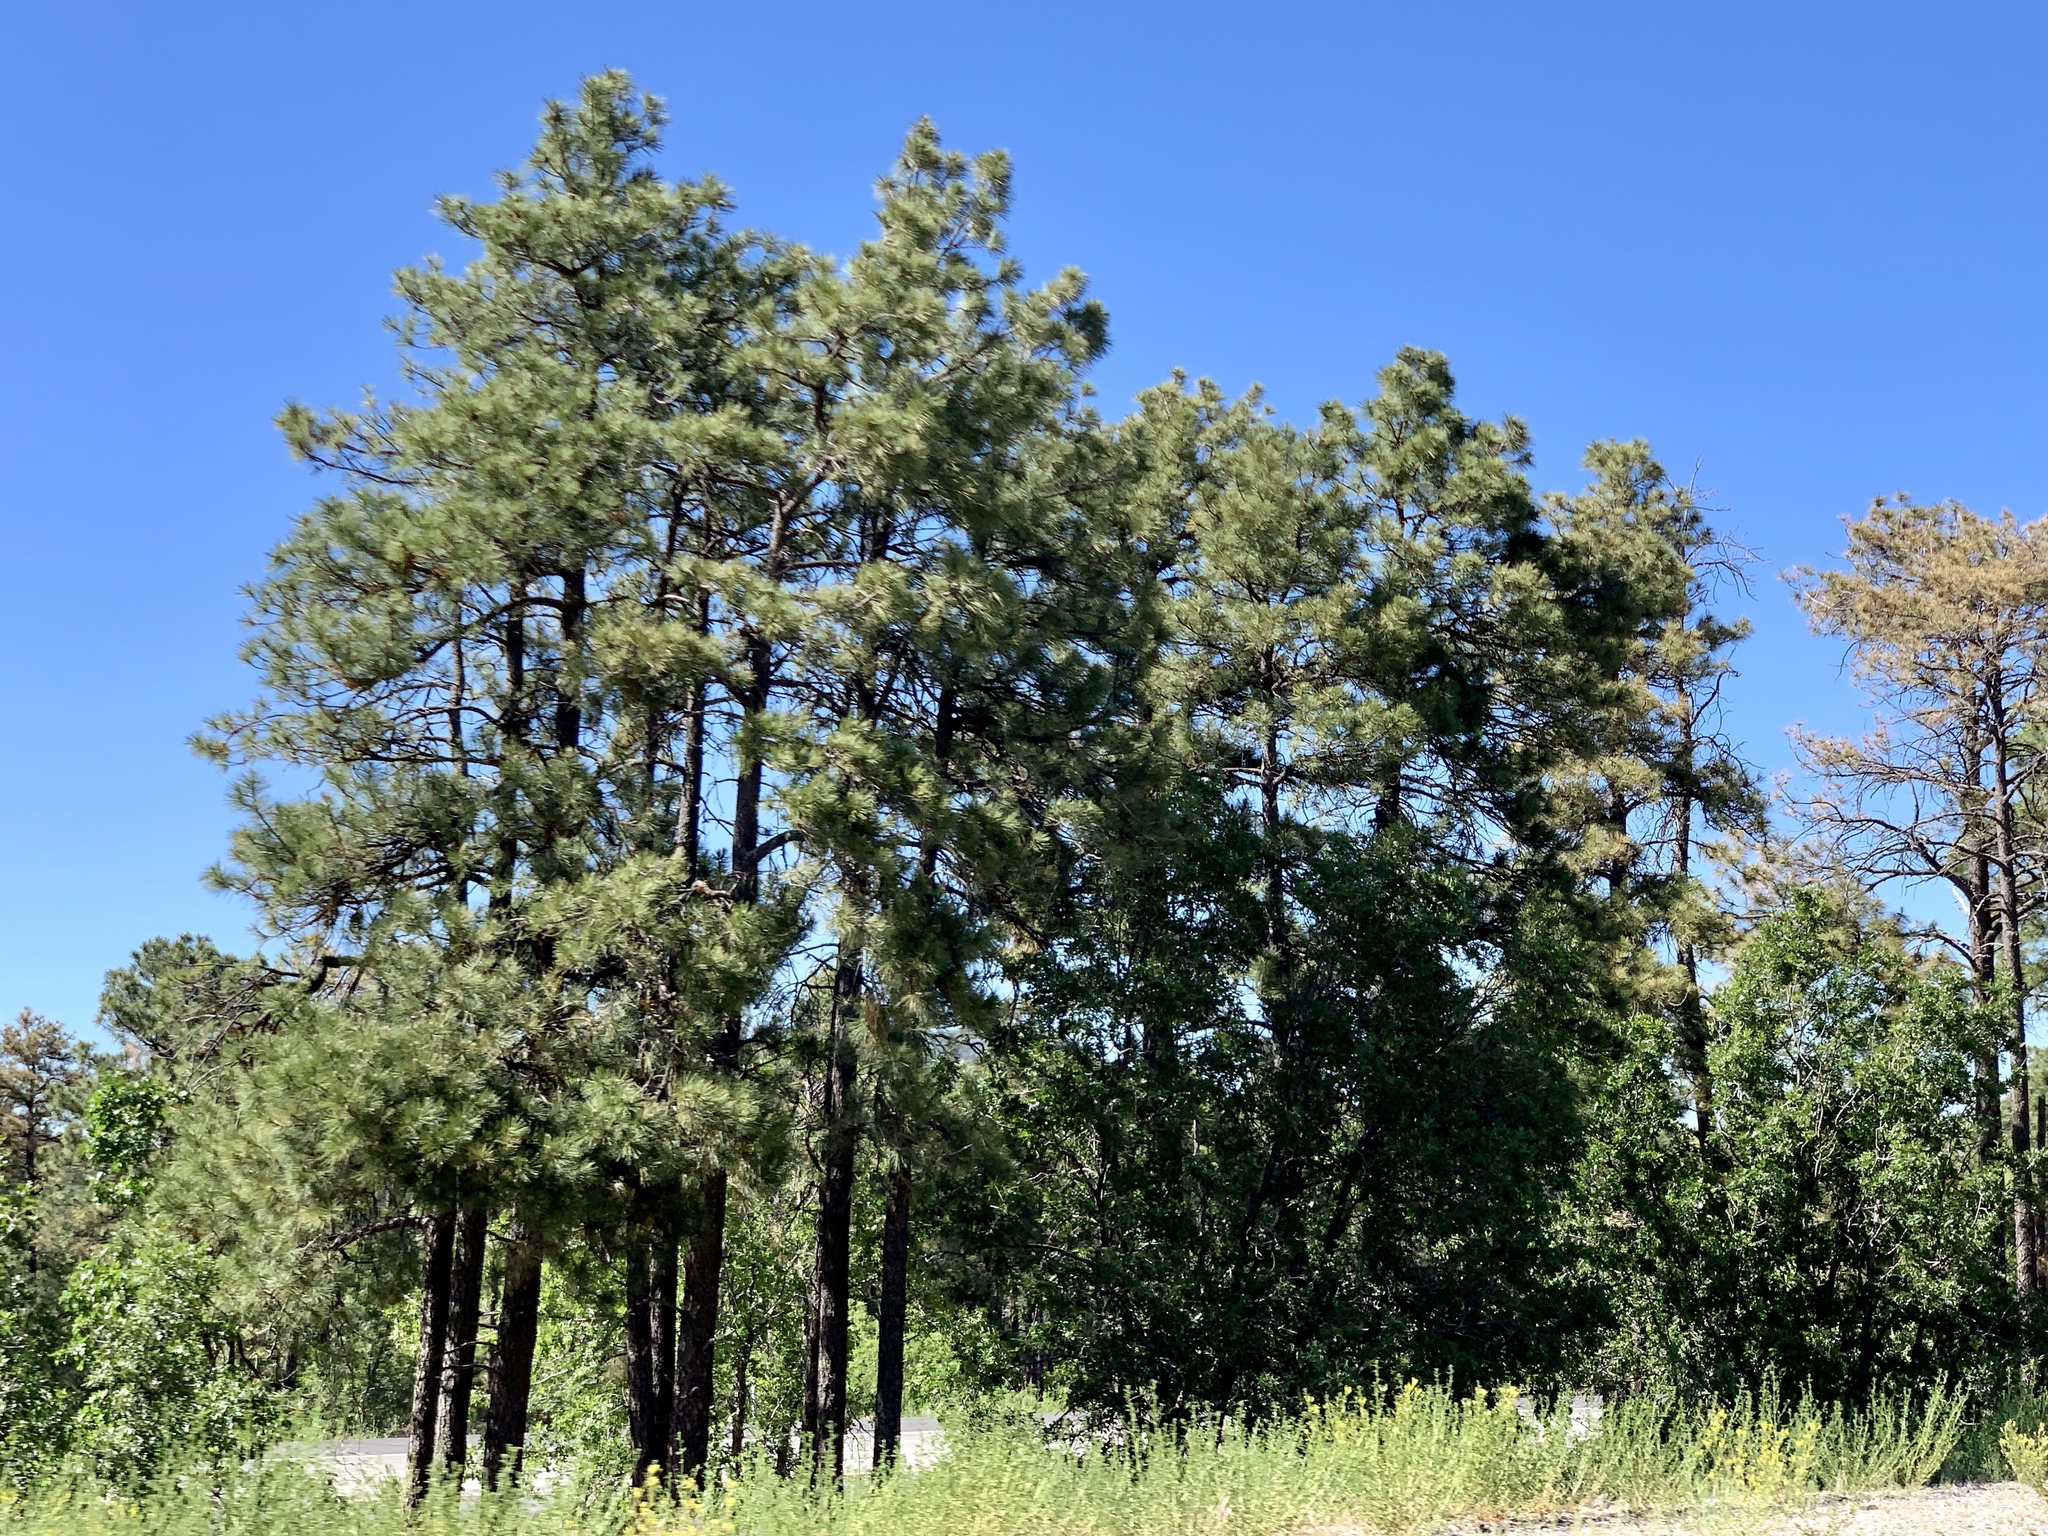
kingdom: Plantae
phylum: Tracheophyta
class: Pinopsida
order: Pinales
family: Pinaceae
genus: Pinus
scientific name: Pinus ponderosa
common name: Western yellow-pine
